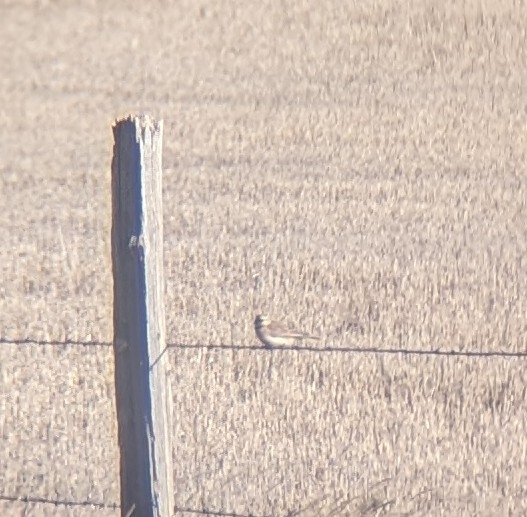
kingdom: Animalia
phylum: Chordata
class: Aves
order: Passeriformes
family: Alaudidae
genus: Eremophila
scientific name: Eremophila alpestris
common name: Horned lark
